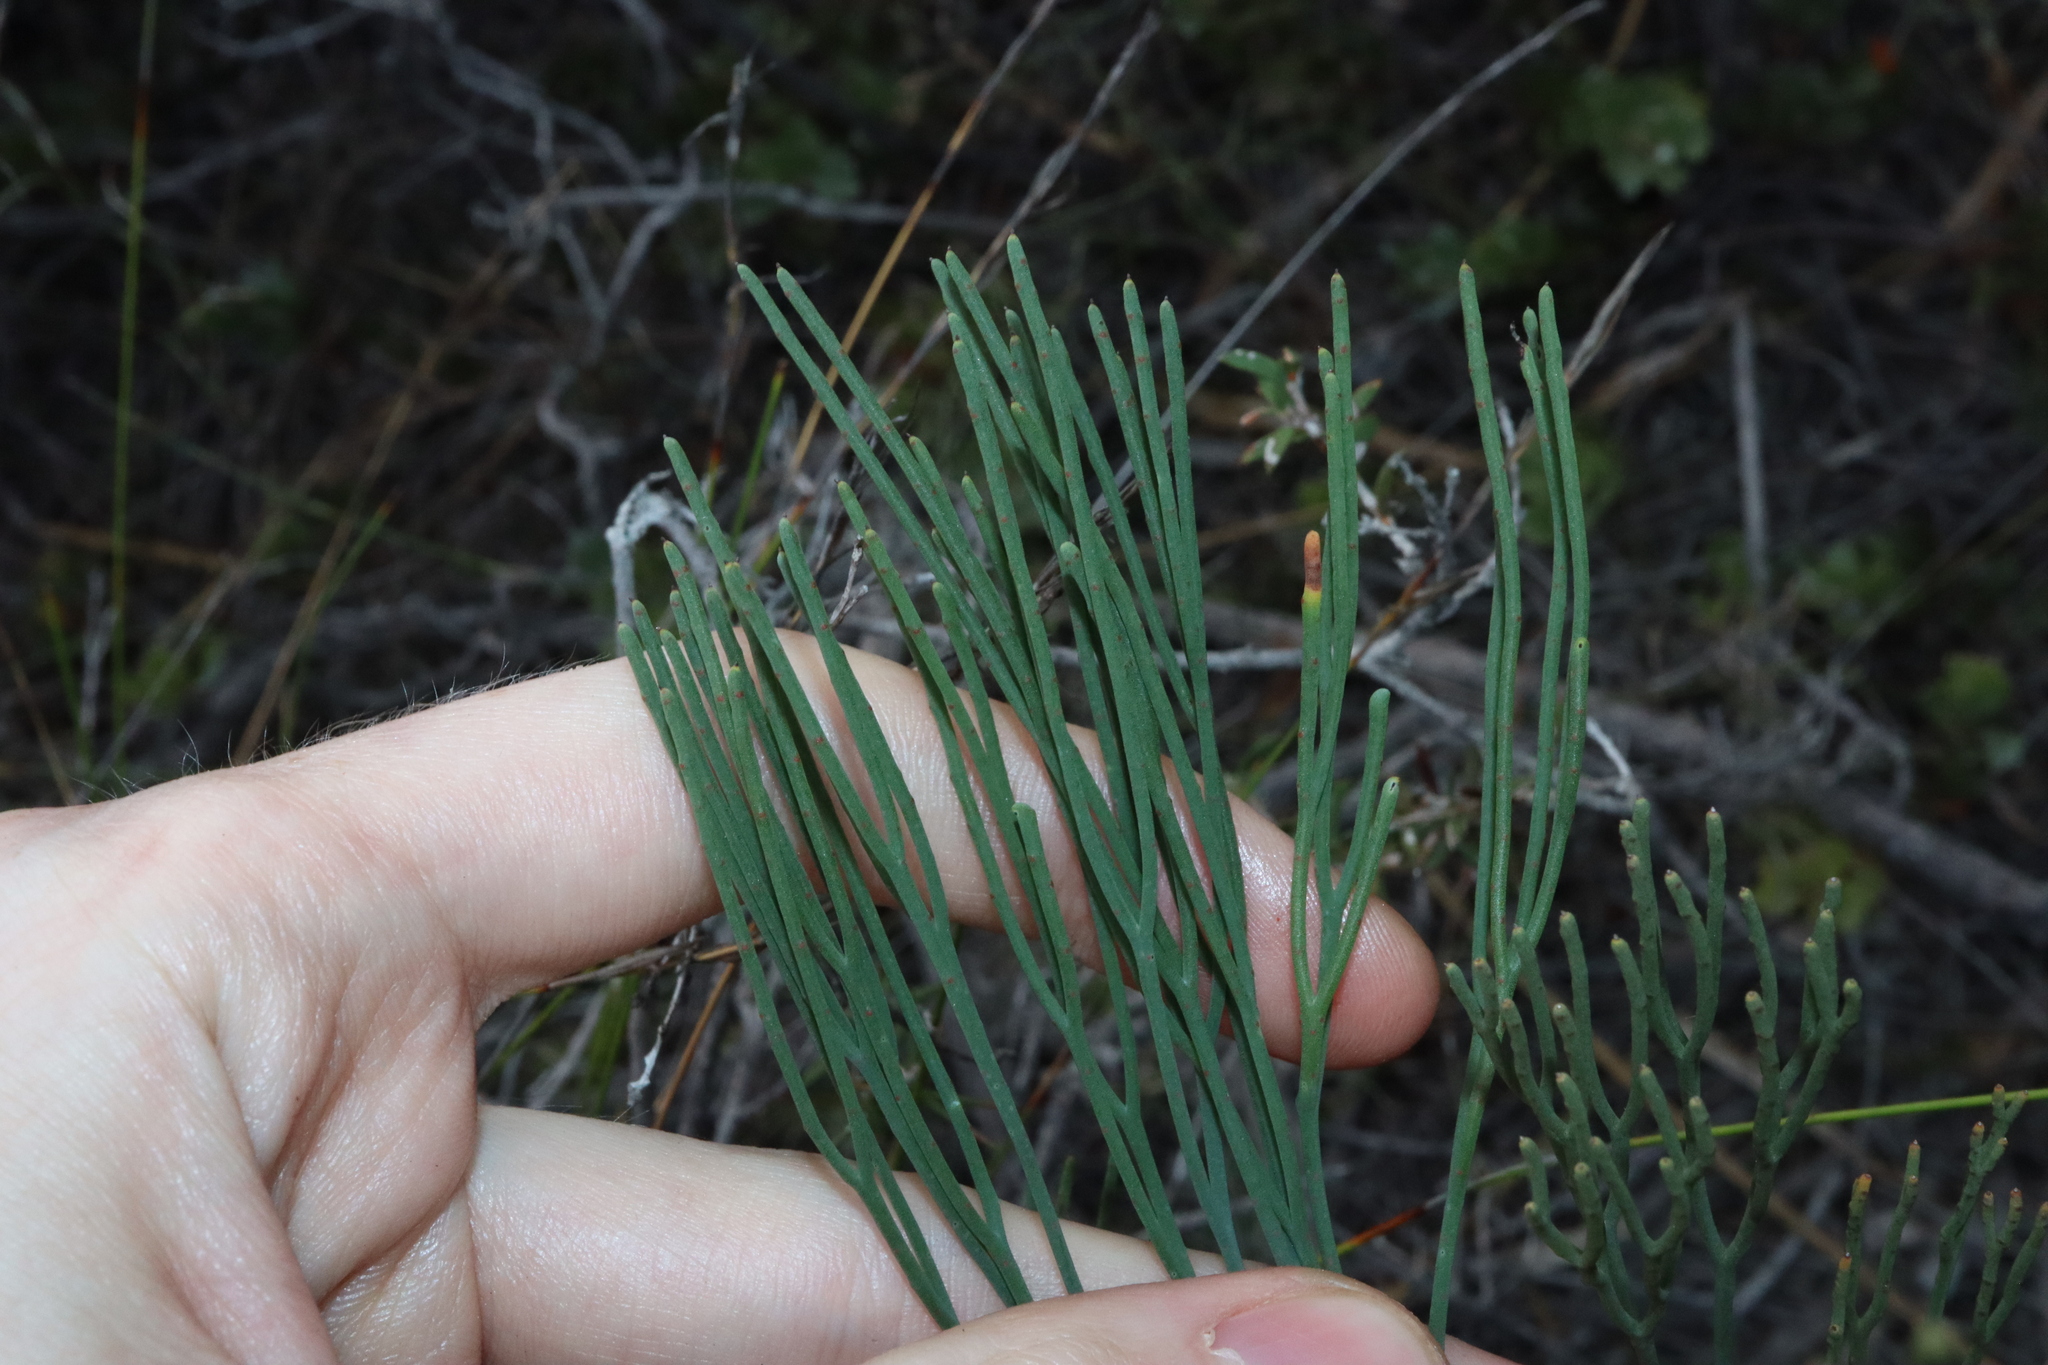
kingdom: Plantae
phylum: Tracheophyta
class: Magnoliopsida
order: Proteales
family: Proteaceae
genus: Franklandia
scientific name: Franklandia fucifolia
